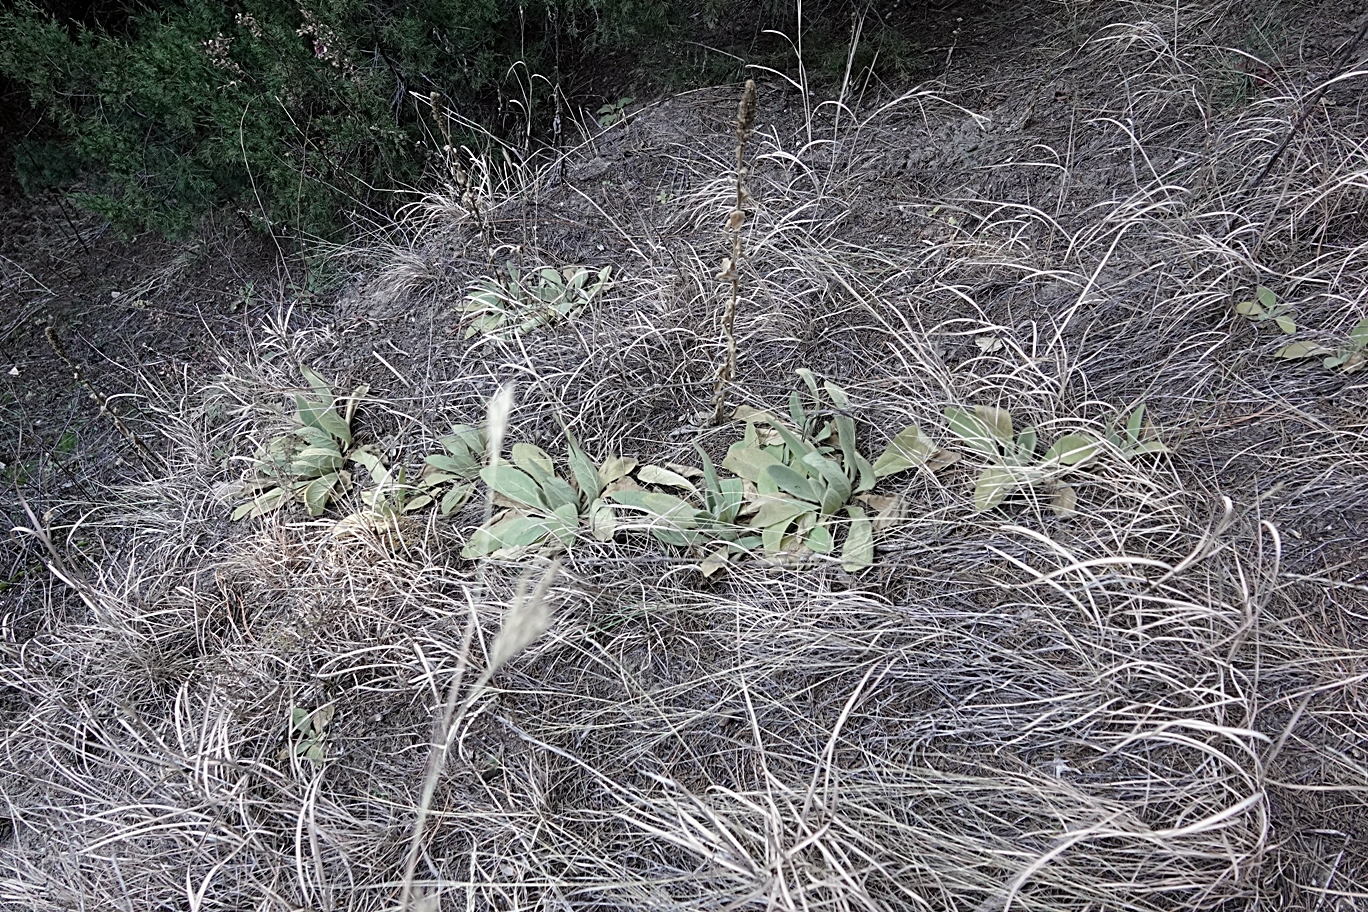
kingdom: Plantae
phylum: Tracheophyta
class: Magnoliopsida
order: Lamiales
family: Scrophulariaceae
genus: Verbascum
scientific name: Verbascum thapsus
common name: Common mullein
